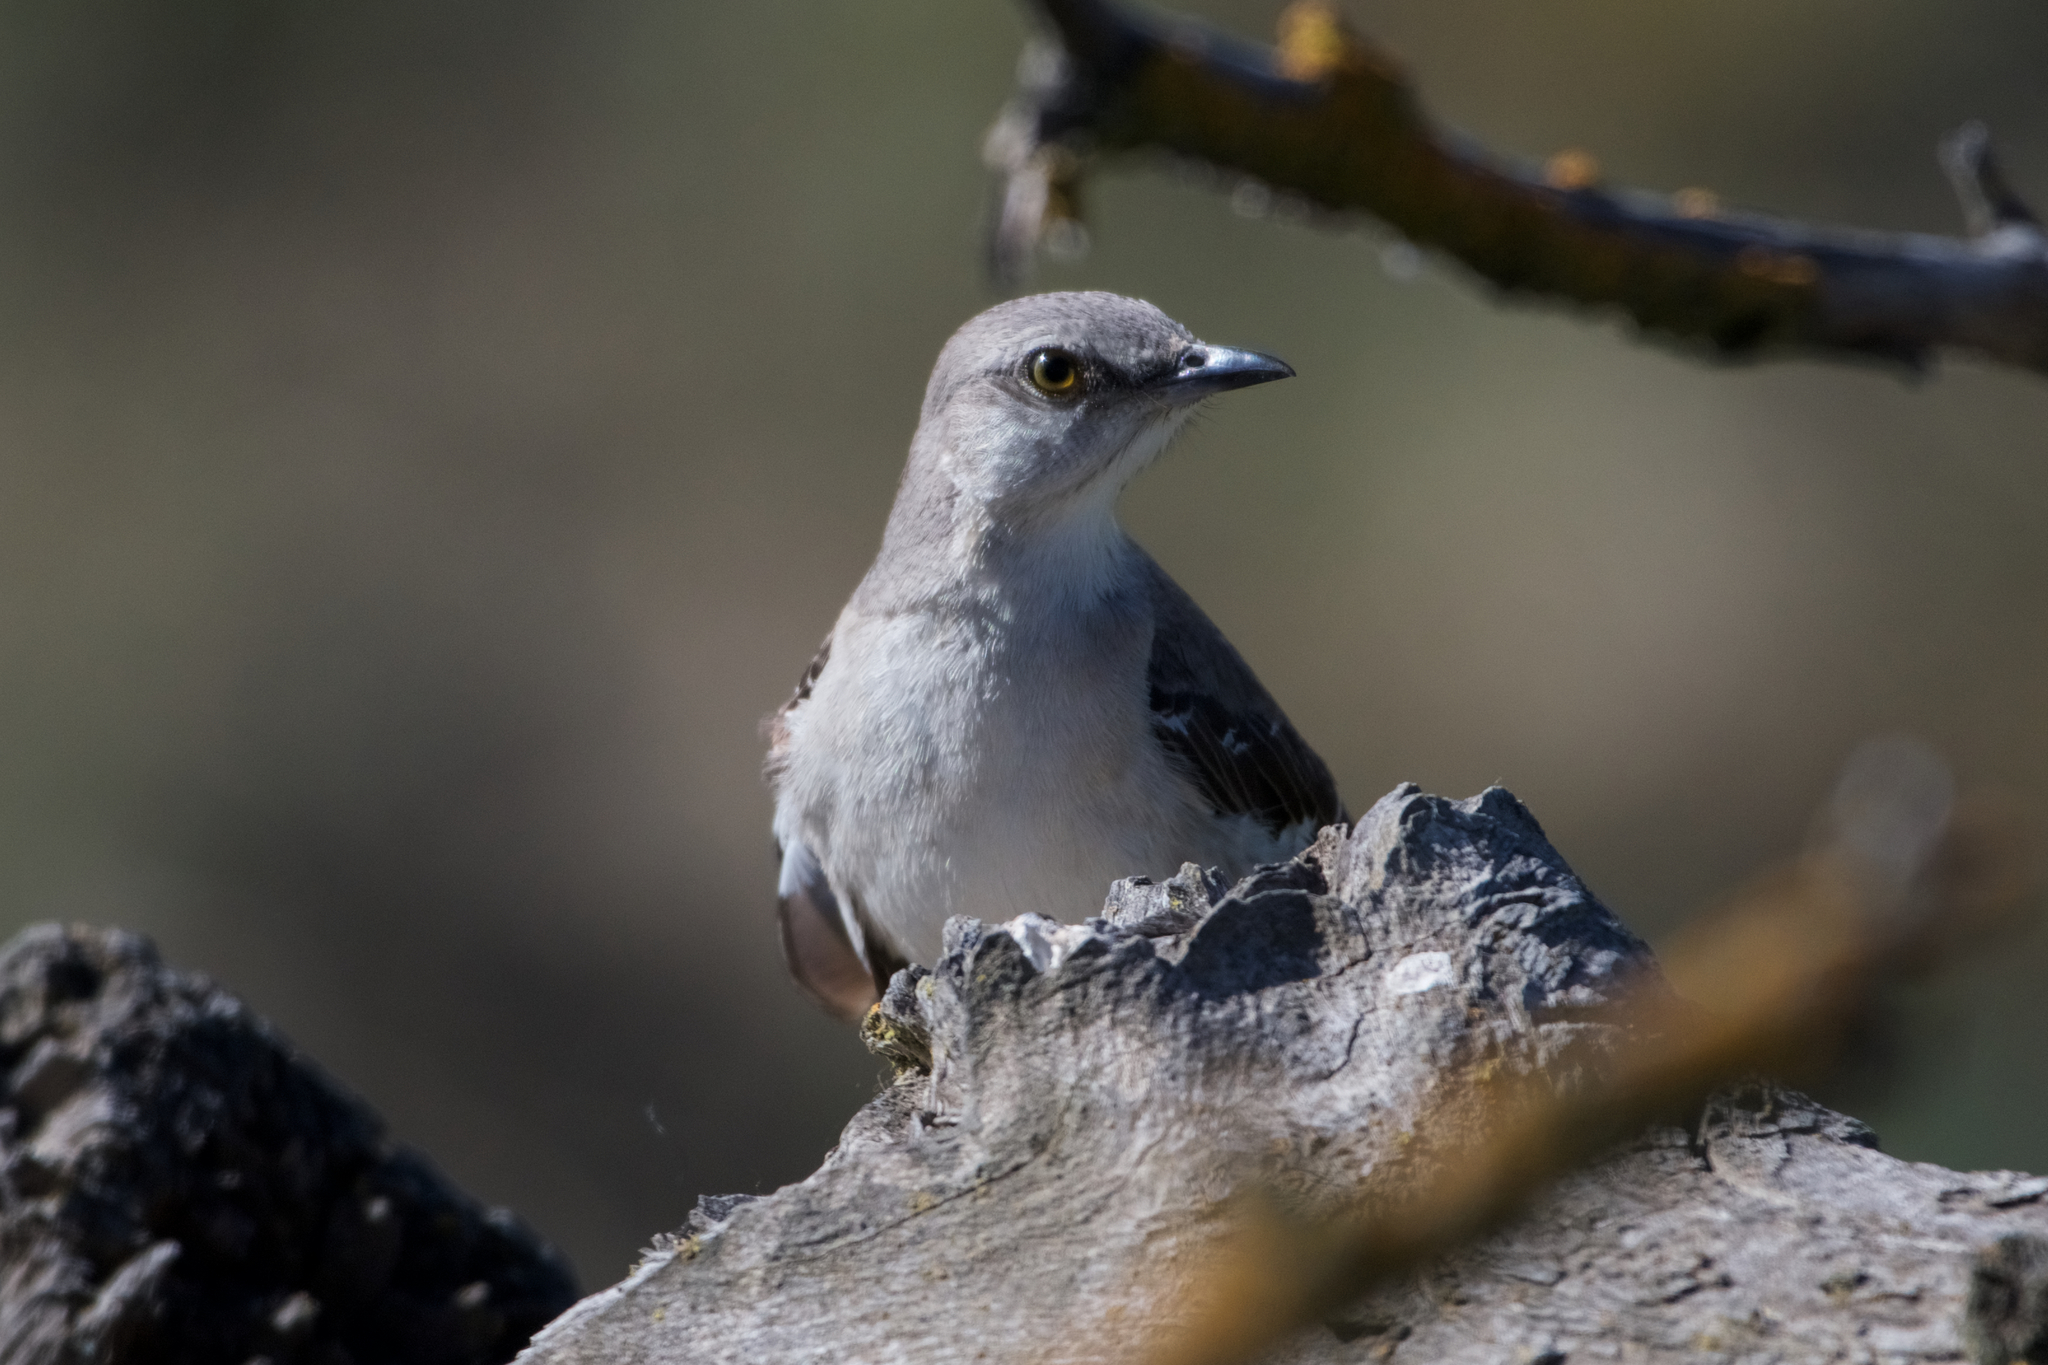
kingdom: Animalia
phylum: Chordata
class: Aves
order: Passeriformes
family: Mimidae
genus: Mimus
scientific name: Mimus polyglottos
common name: Northern mockingbird
